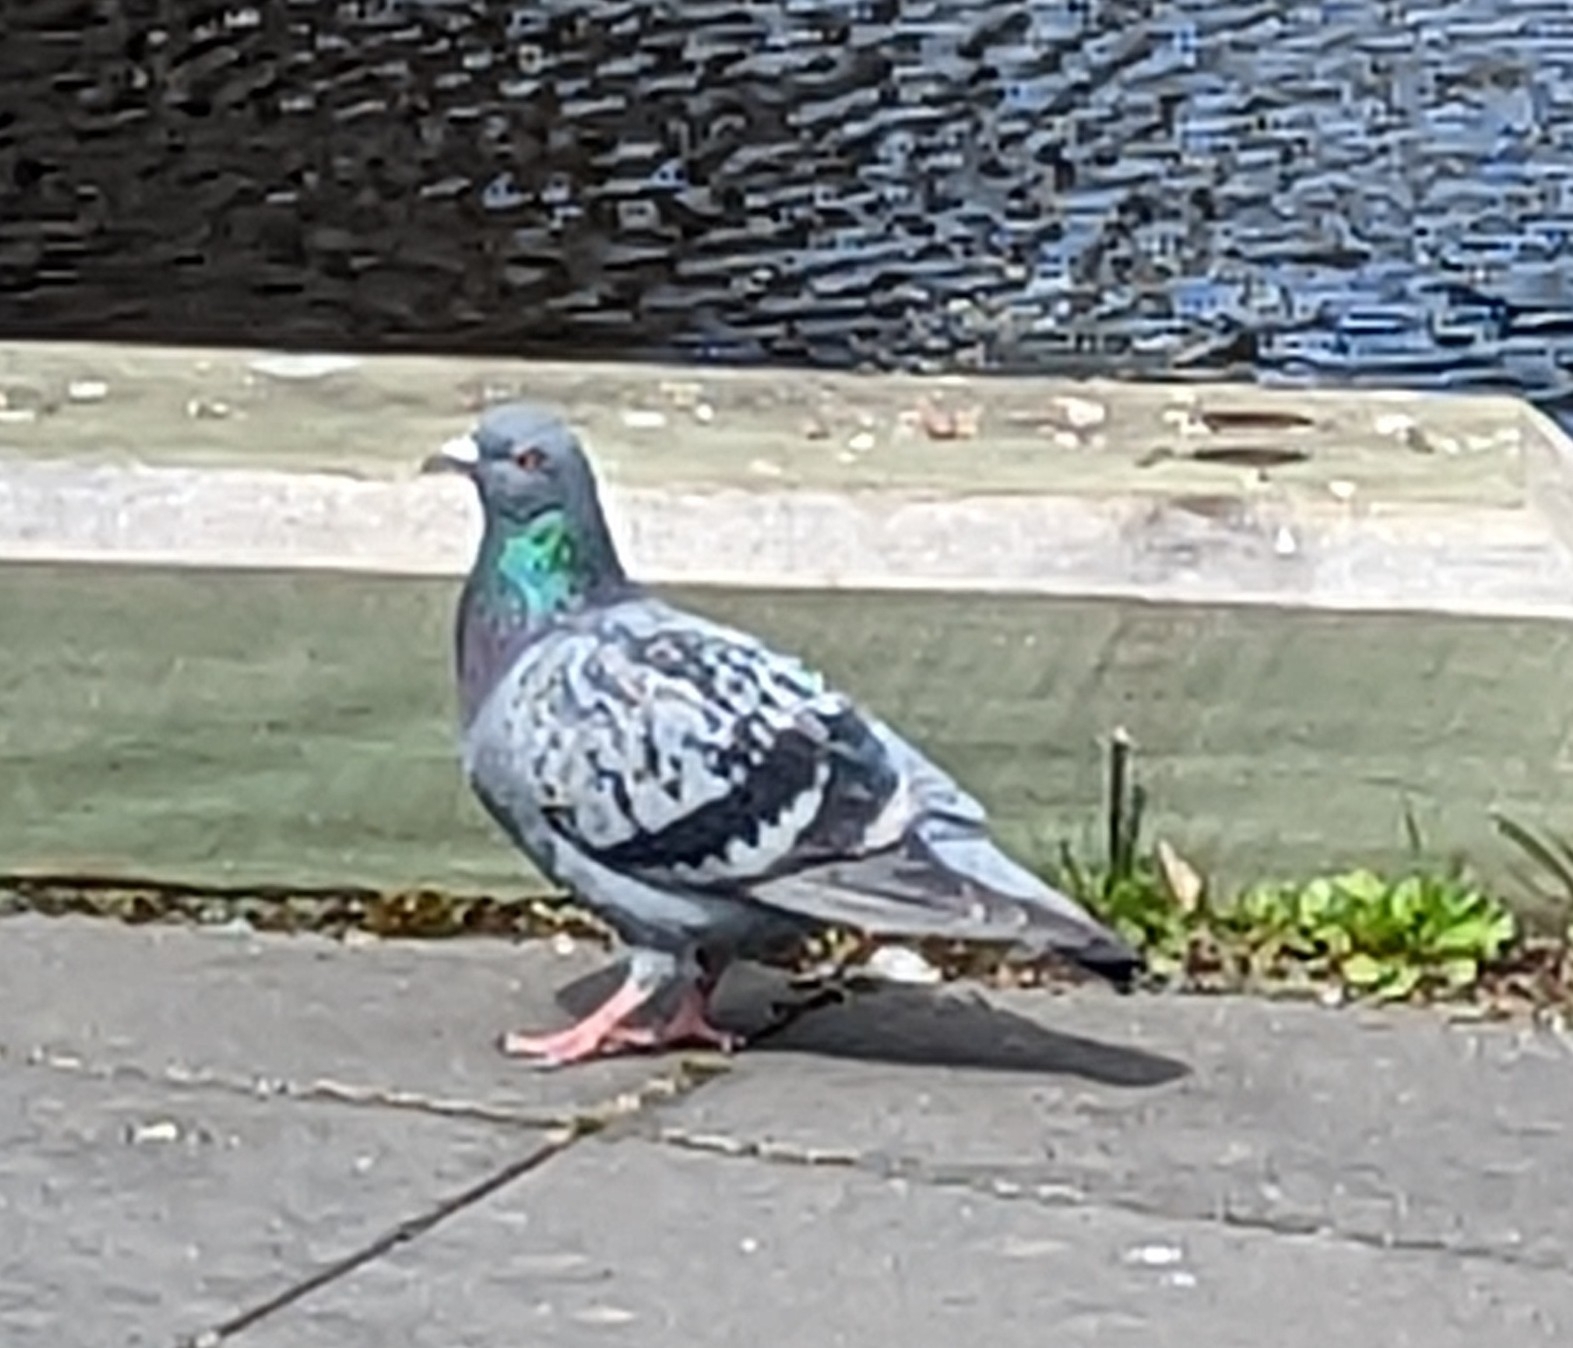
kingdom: Animalia
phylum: Chordata
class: Aves
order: Columbiformes
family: Columbidae
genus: Columba
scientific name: Columba livia
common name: Rock pigeon
